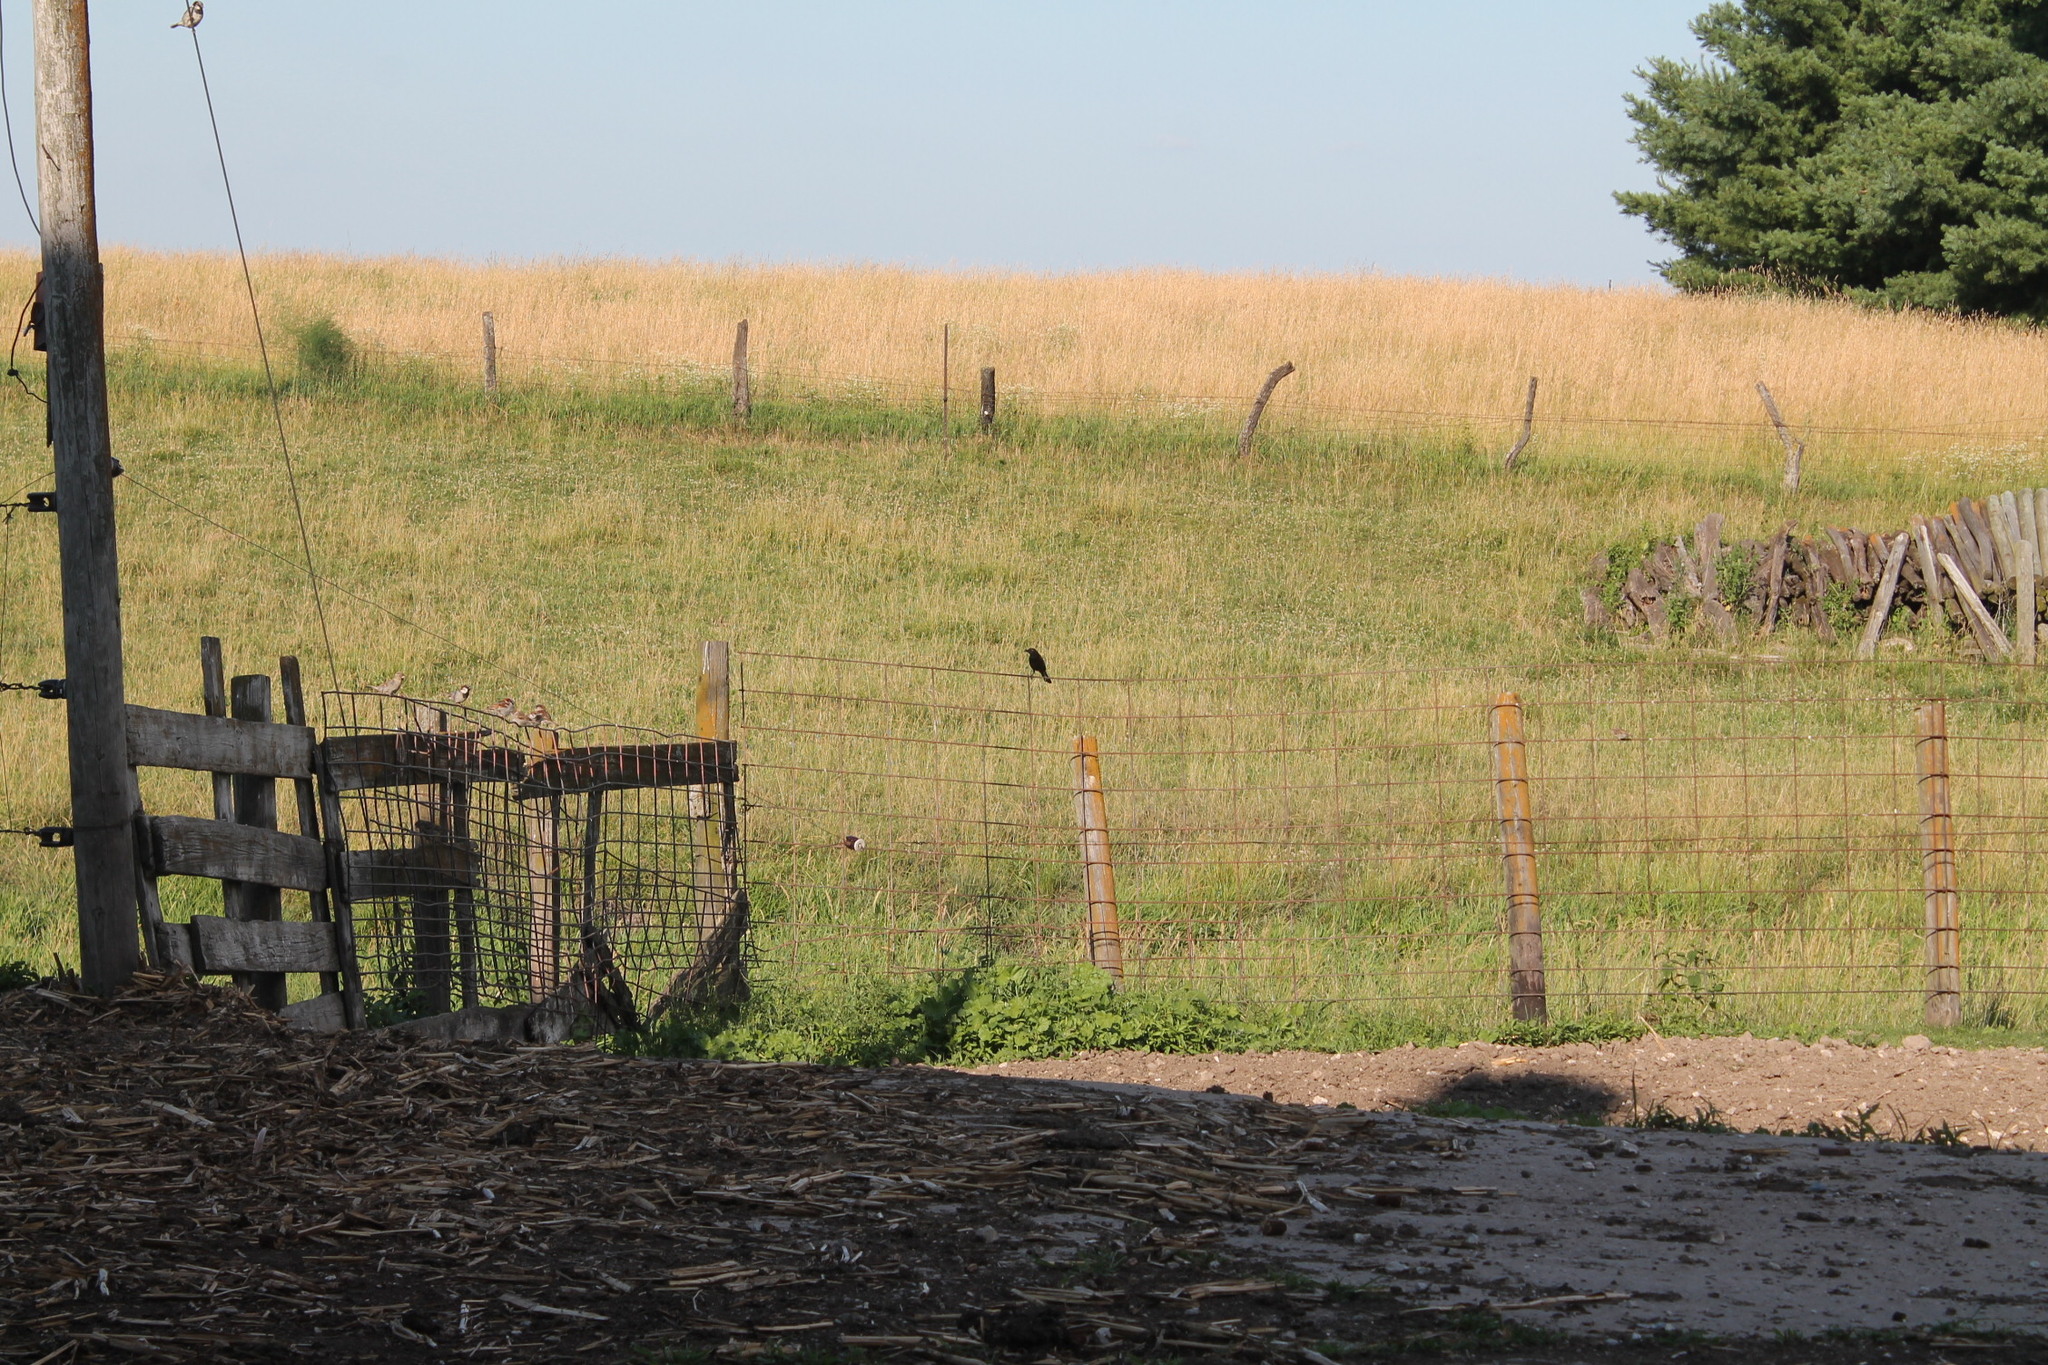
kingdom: Animalia
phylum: Chordata
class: Aves
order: Passeriformes
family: Icteridae
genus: Quiscalus
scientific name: Quiscalus quiscula
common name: Common grackle
